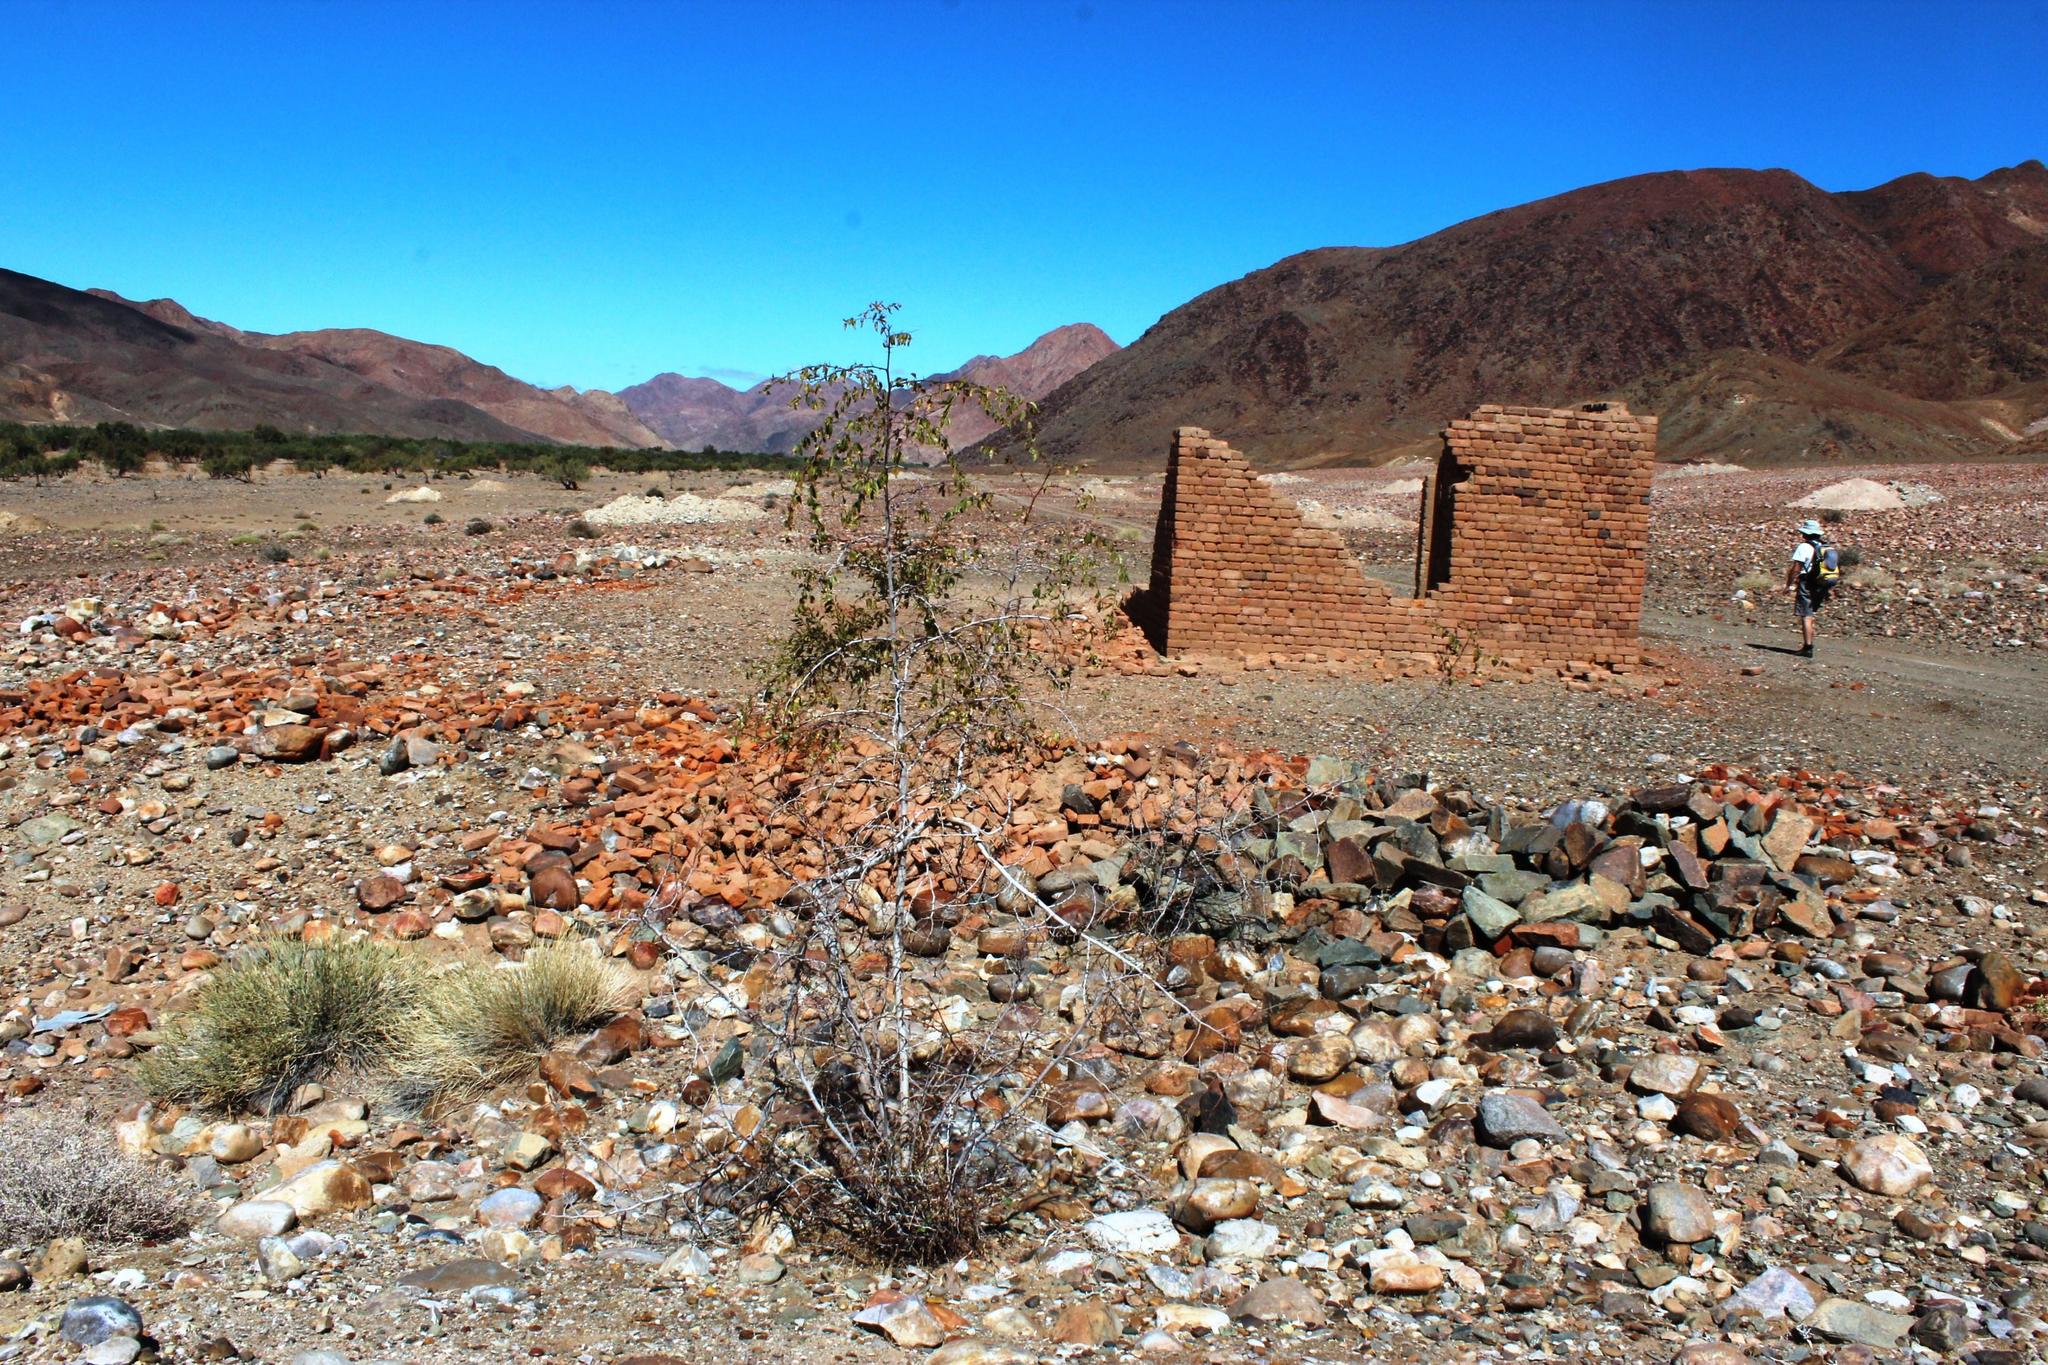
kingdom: Plantae
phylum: Tracheophyta
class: Magnoliopsida
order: Rosales
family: Rhamnaceae
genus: Ziziphus
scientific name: Ziziphus mucronata
